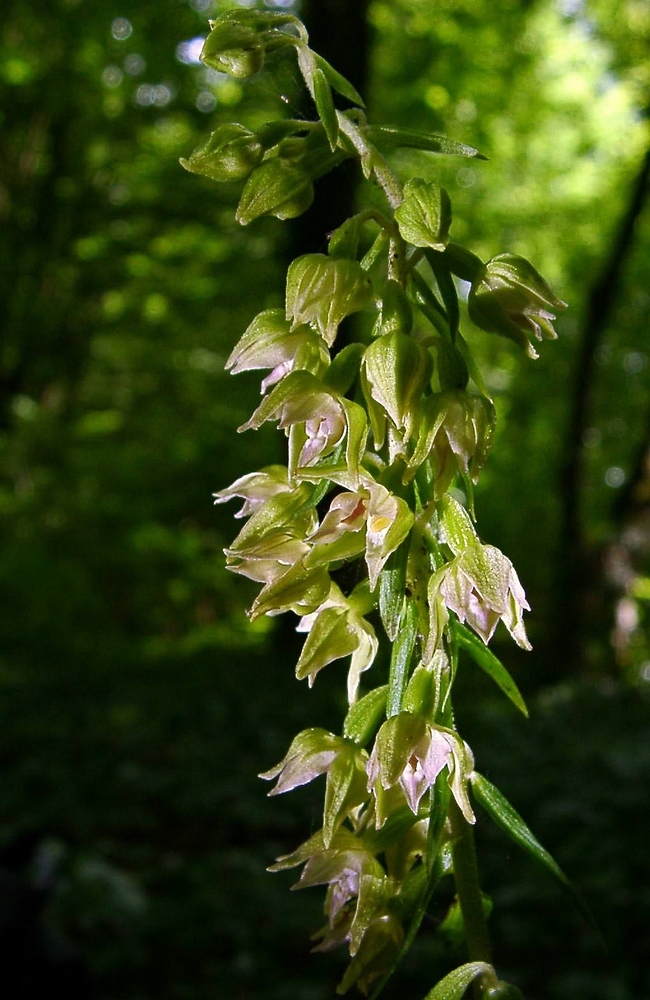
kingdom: Plantae
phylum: Tracheophyta
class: Liliopsida
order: Asparagales
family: Orchidaceae
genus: Epipactis
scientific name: Epipactis leptochila
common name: Narrow-lipped helleborine
